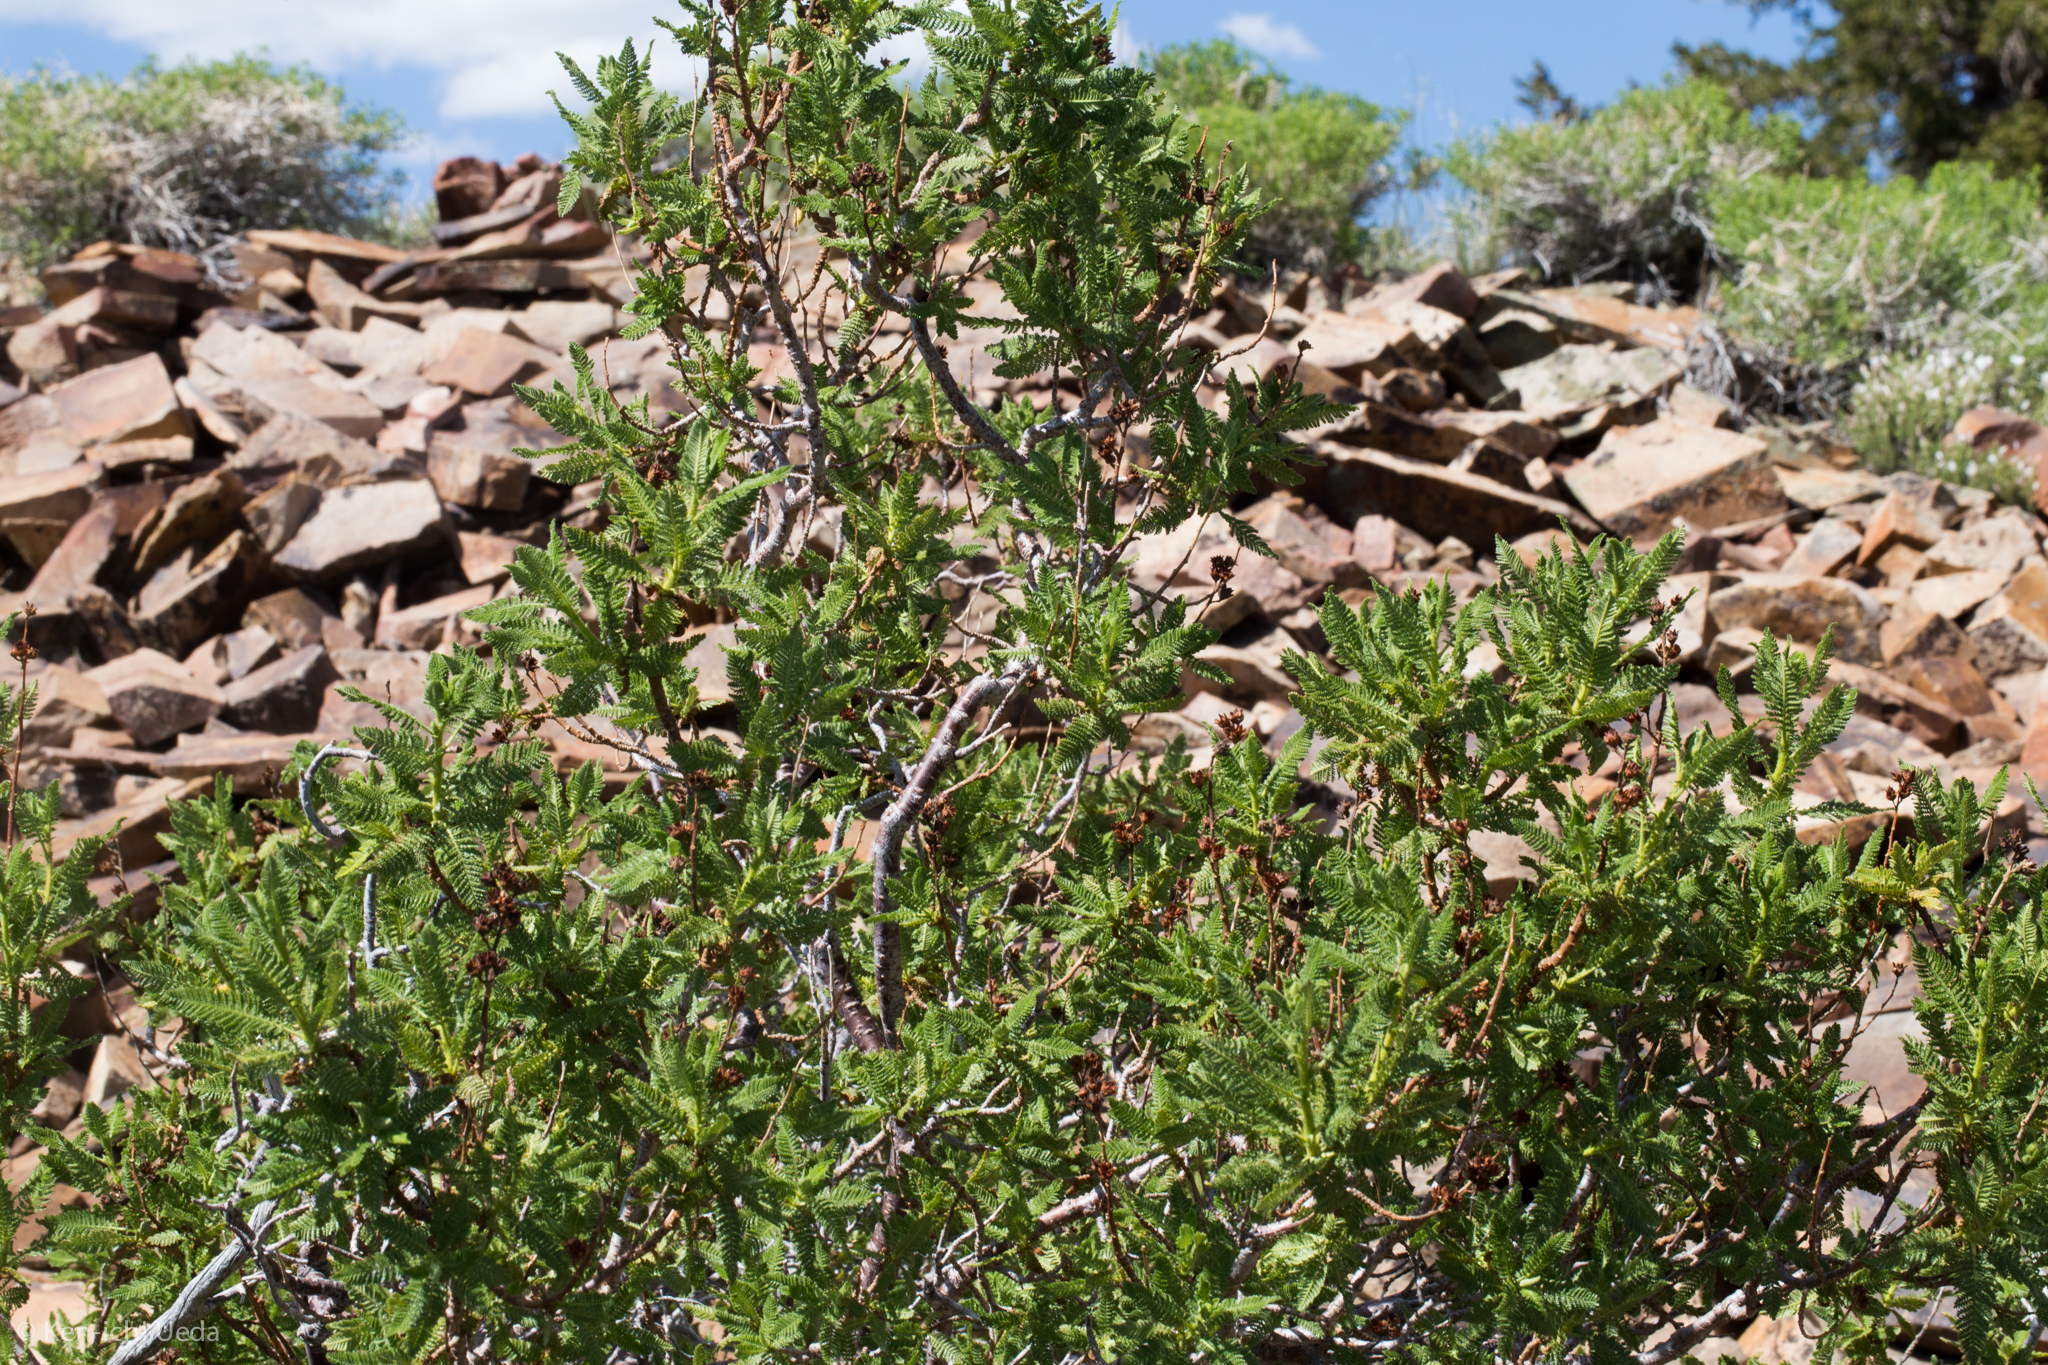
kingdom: Plantae
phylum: Tracheophyta
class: Magnoliopsida
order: Rosales
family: Rosaceae
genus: Chamaebatiaria
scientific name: Chamaebatiaria millefolium
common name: Fernbush
